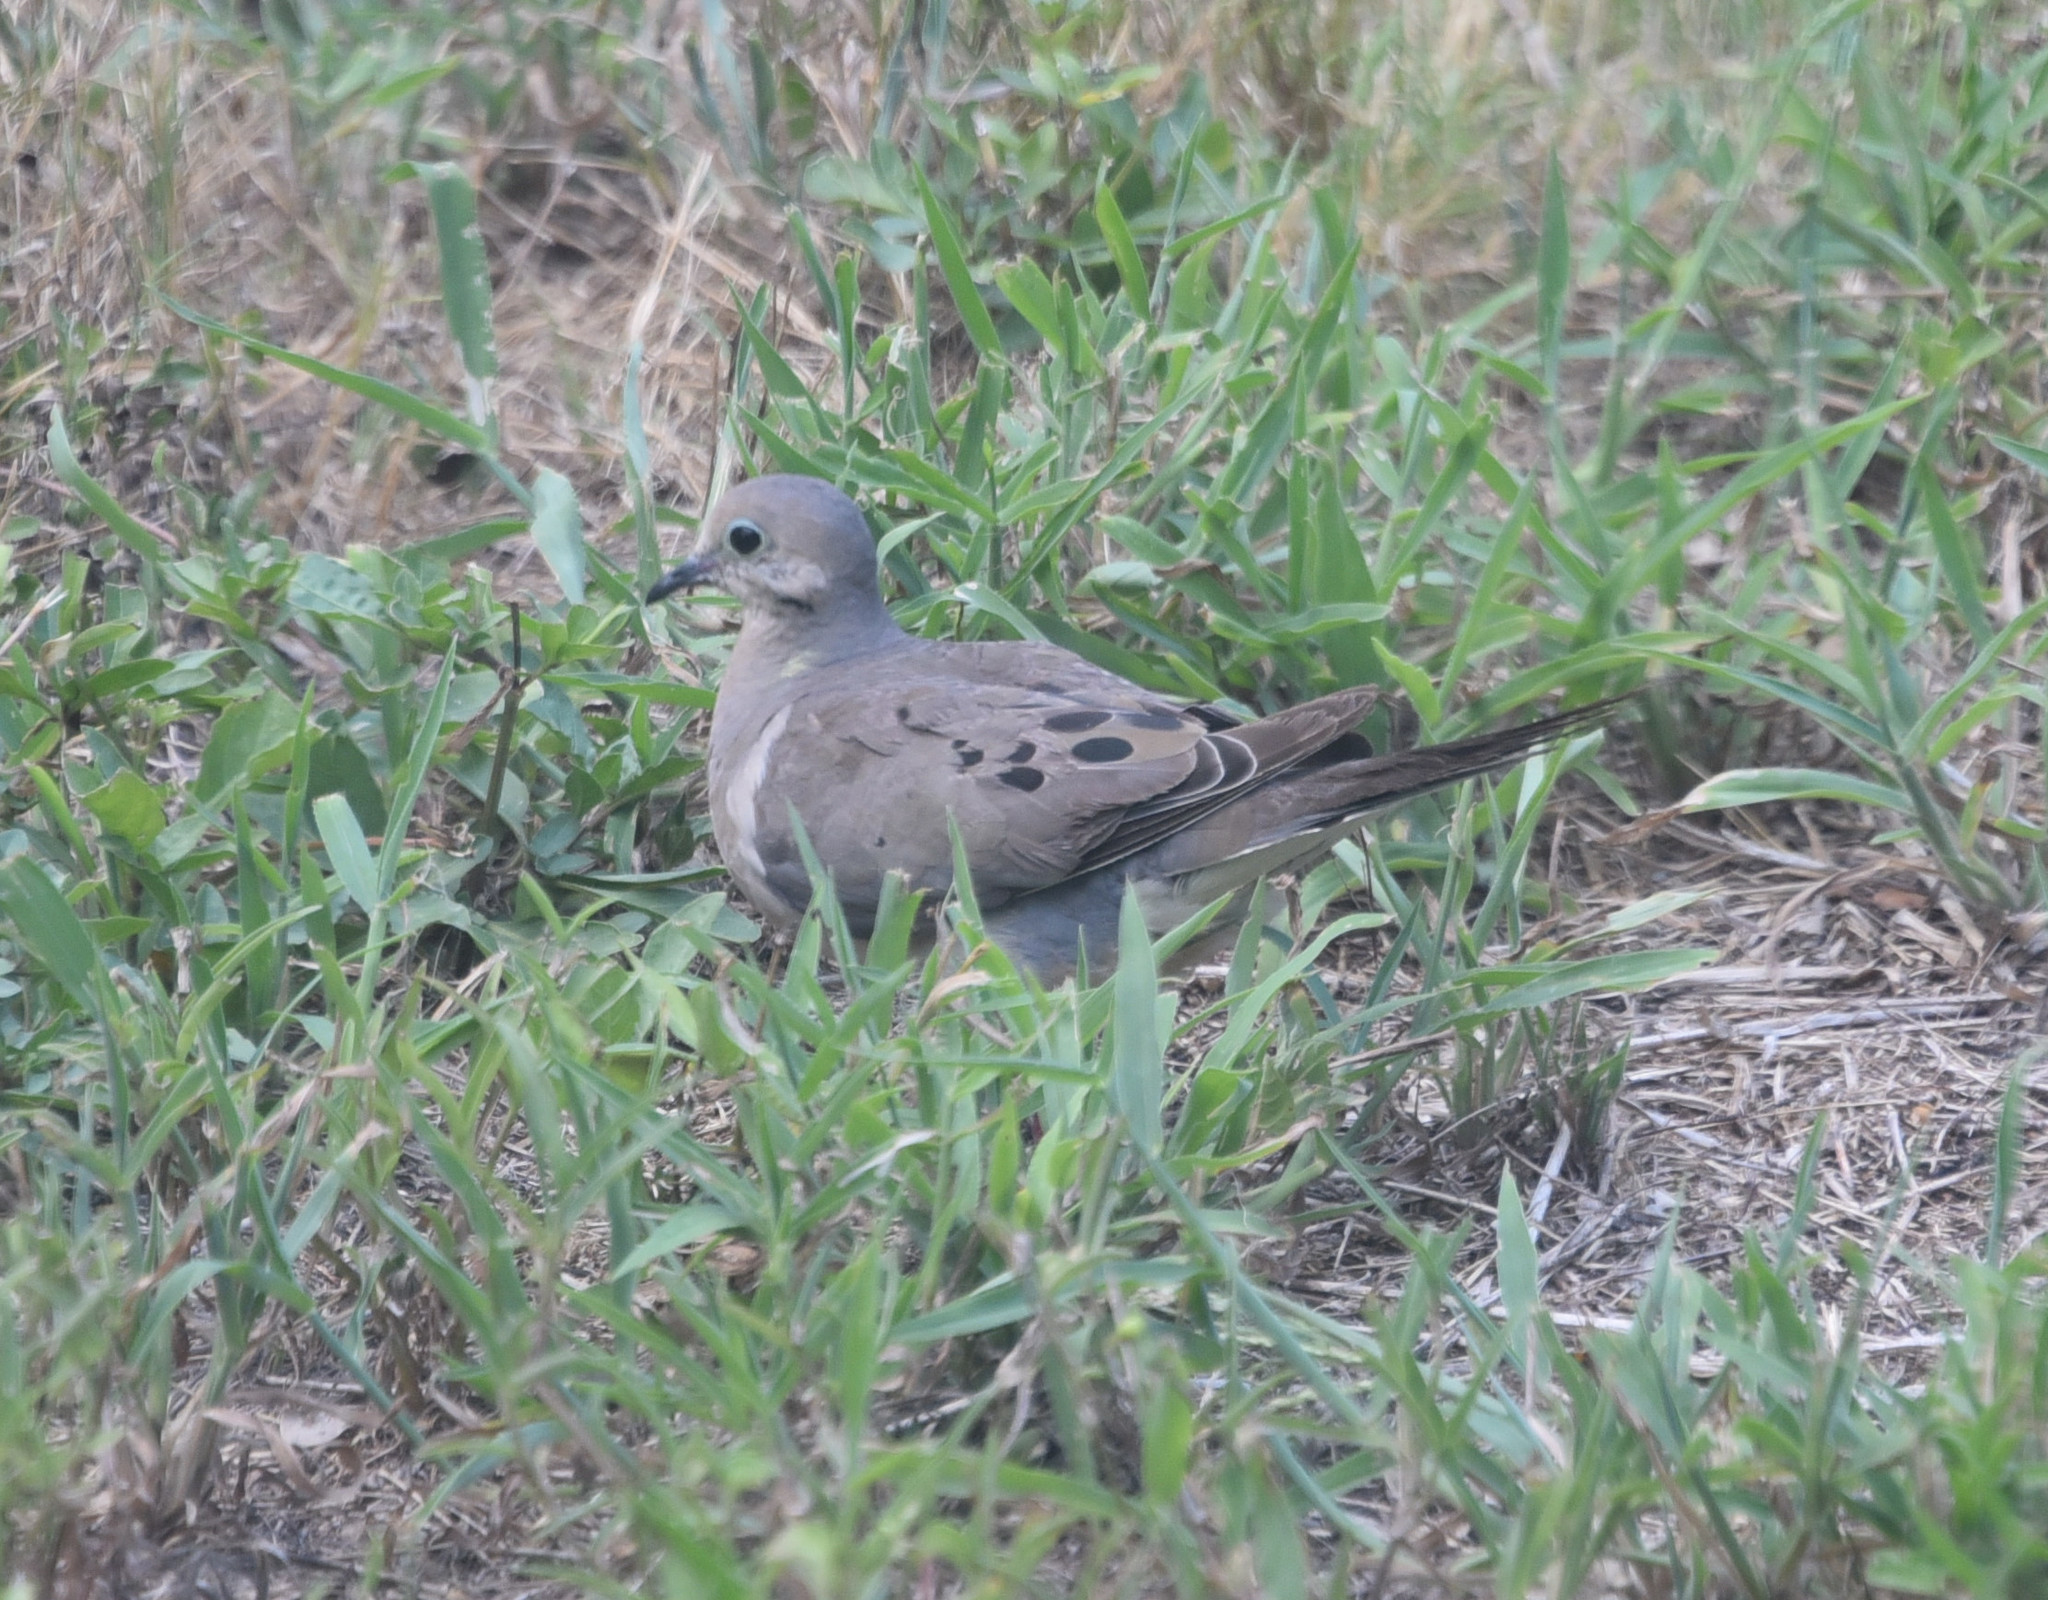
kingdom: Animalia
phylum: Chordata
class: Aves
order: Columbiformes
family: Columbidae
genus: Zenaida
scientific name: Zenaida macroura
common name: Mourning dove
